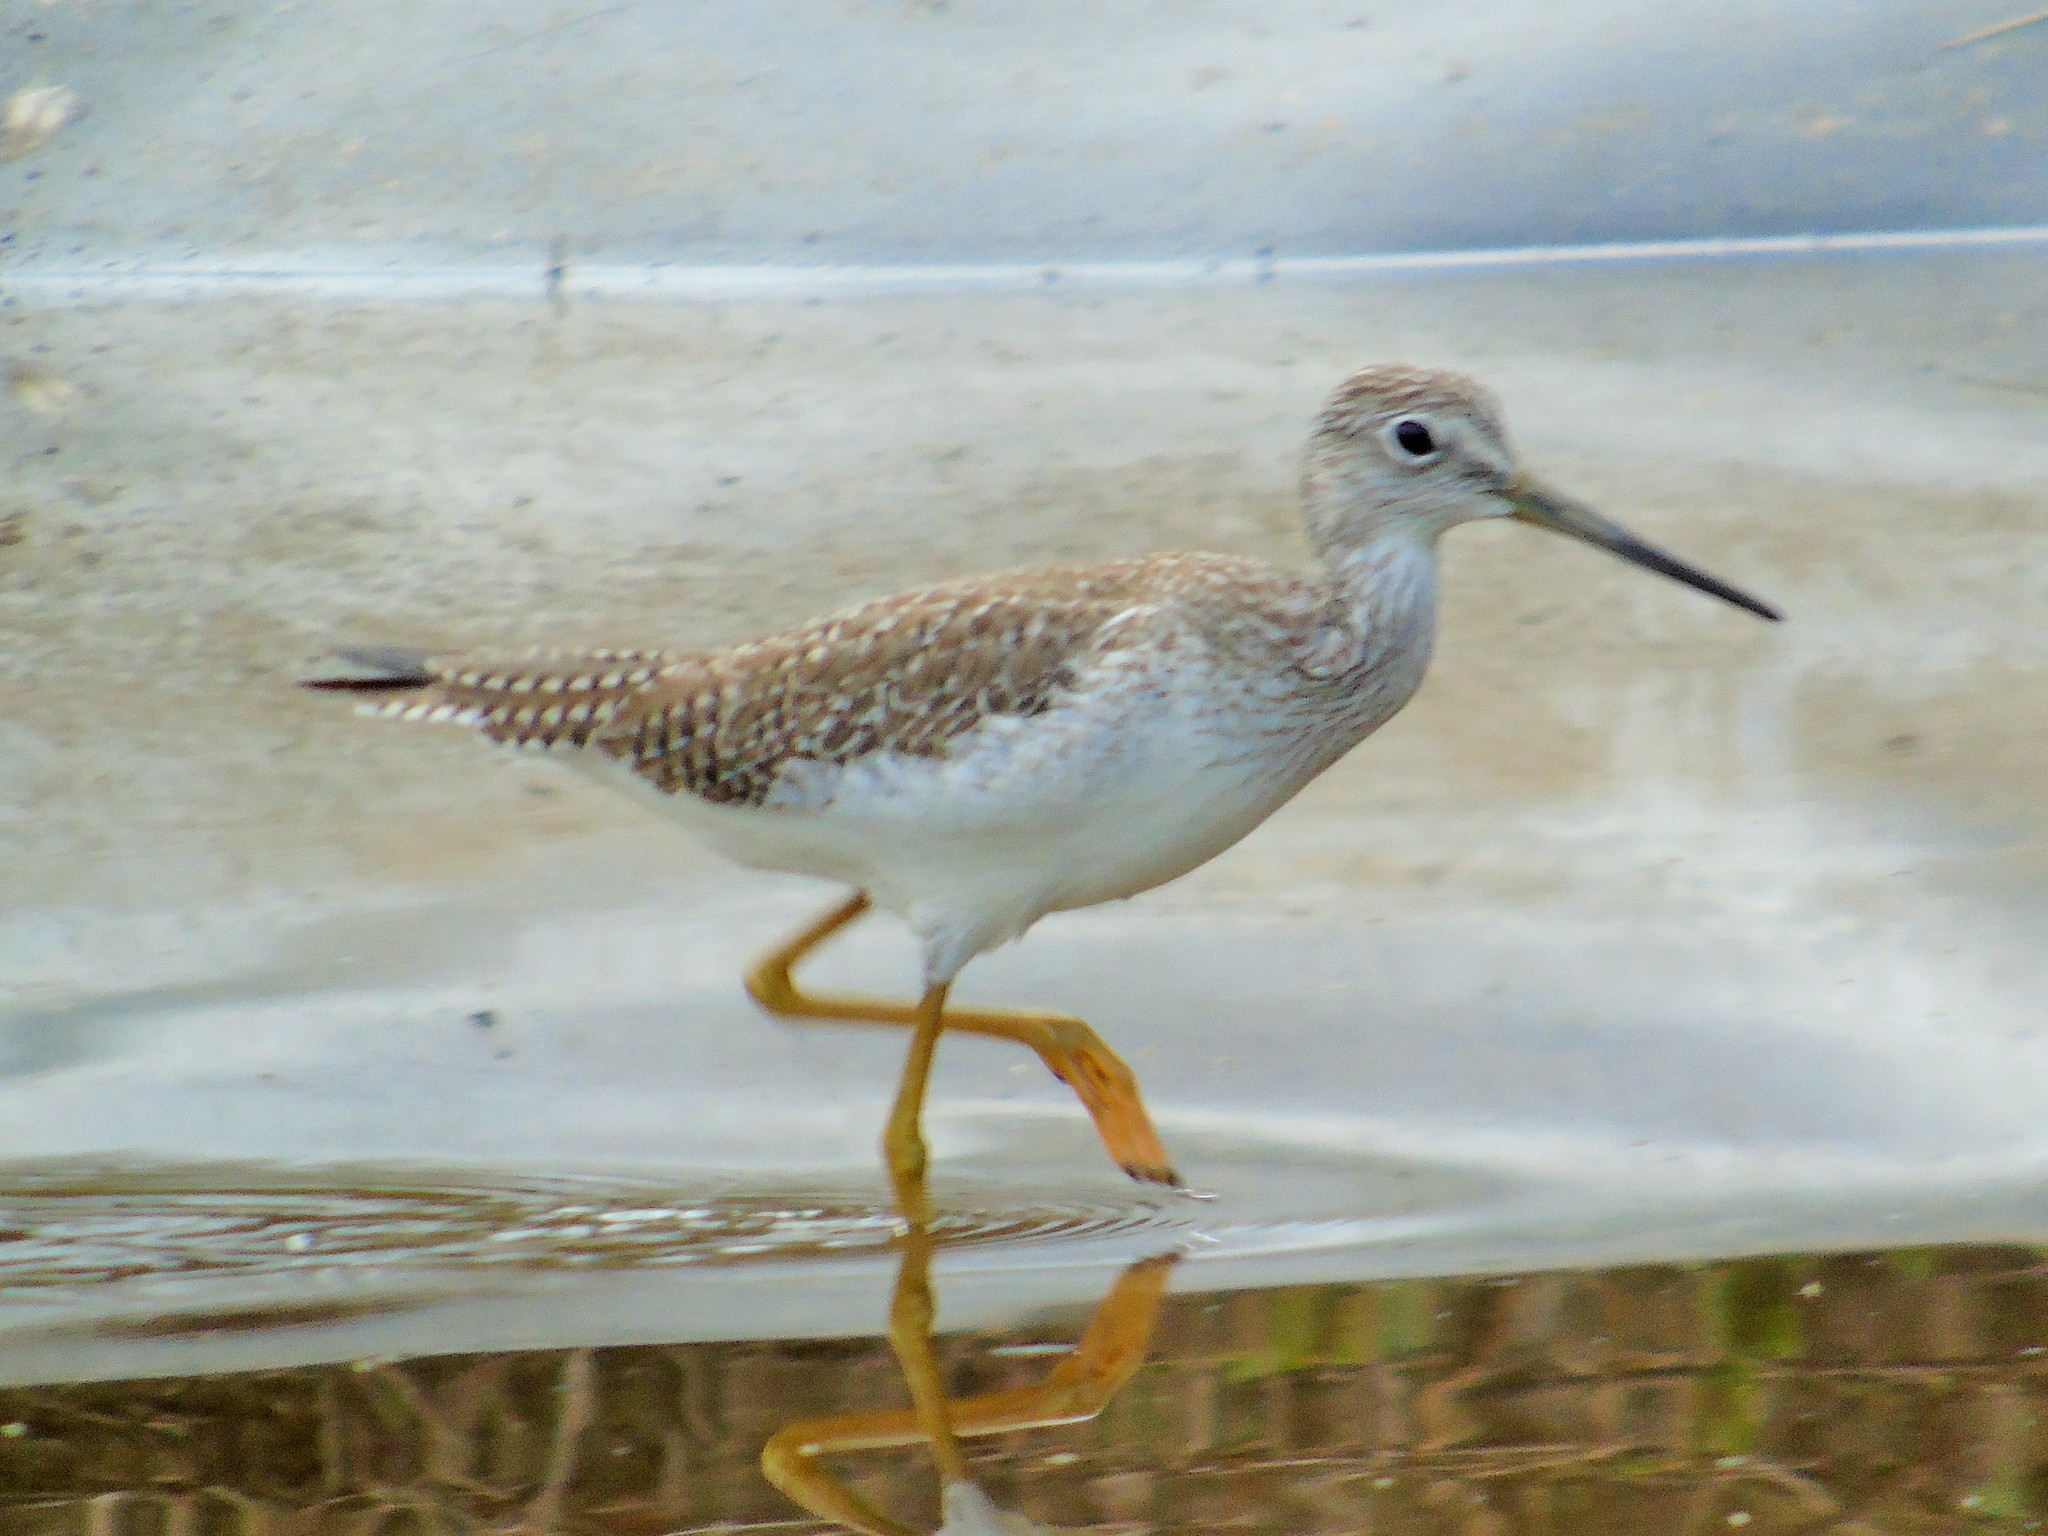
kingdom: Animalia
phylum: Chordata
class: Aves
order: Charadriiformes
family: Scolopacidae
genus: Tringa
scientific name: Tringa melanoleuca
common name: Greater yellowlegs
